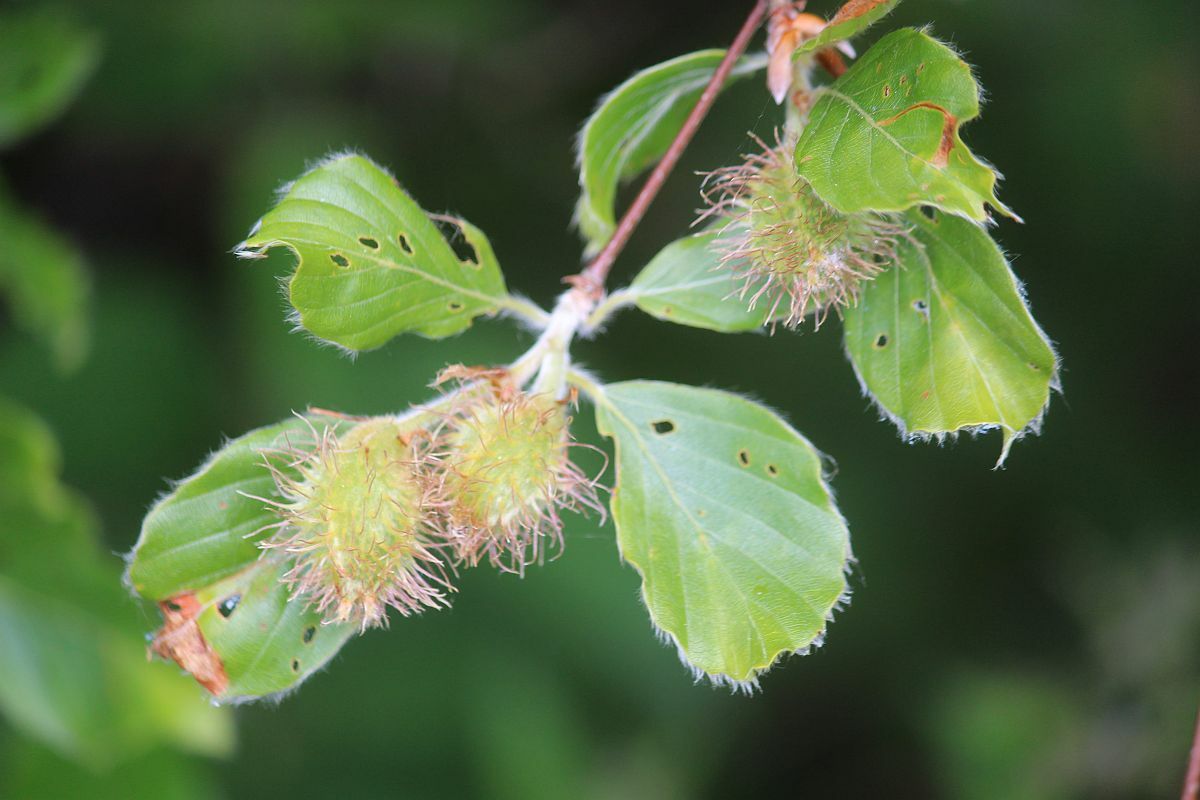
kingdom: Plantae
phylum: Tracheophyta
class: Magnoliopsida
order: Fagales
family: Fagaceae
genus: Fagus
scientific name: Fagus sylvatica
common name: Beech
